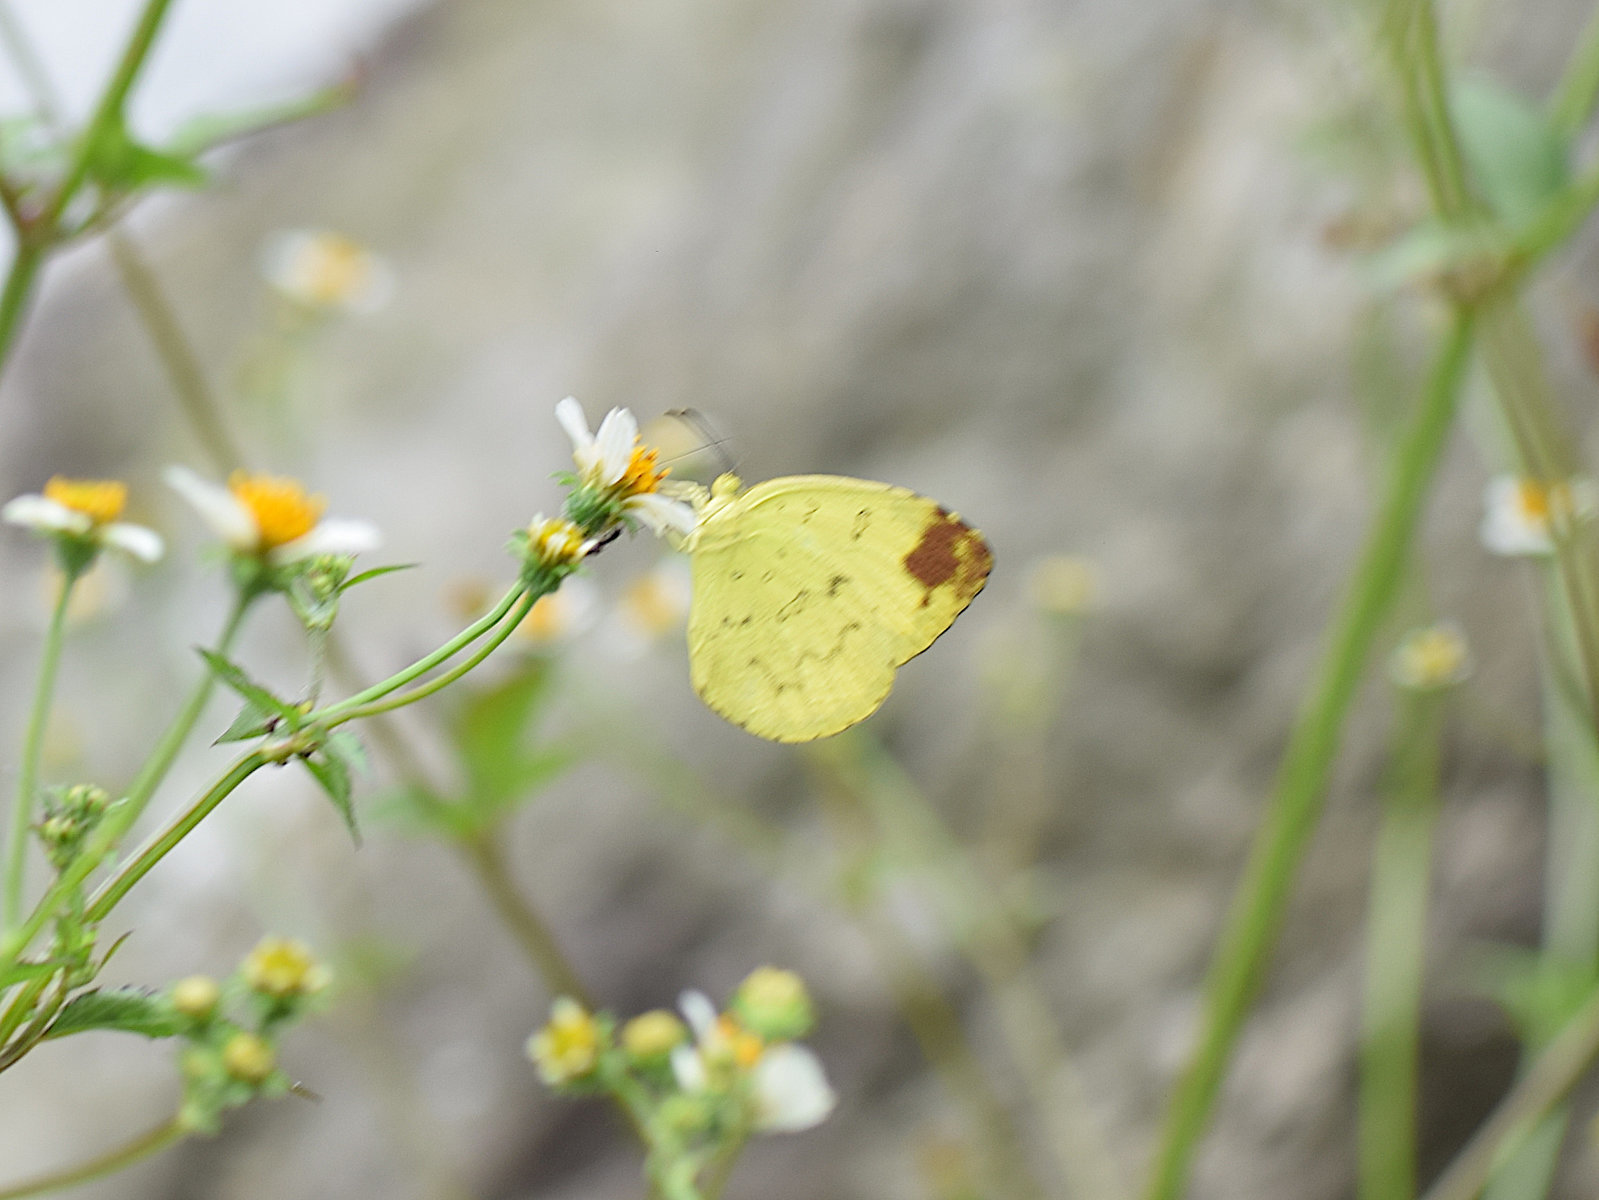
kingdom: Animalia
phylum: Arthropoda
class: Insecta
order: Lepidoptera
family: Pieridae
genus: Eurema
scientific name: Eurema blanda
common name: Three-spot grass yellow
